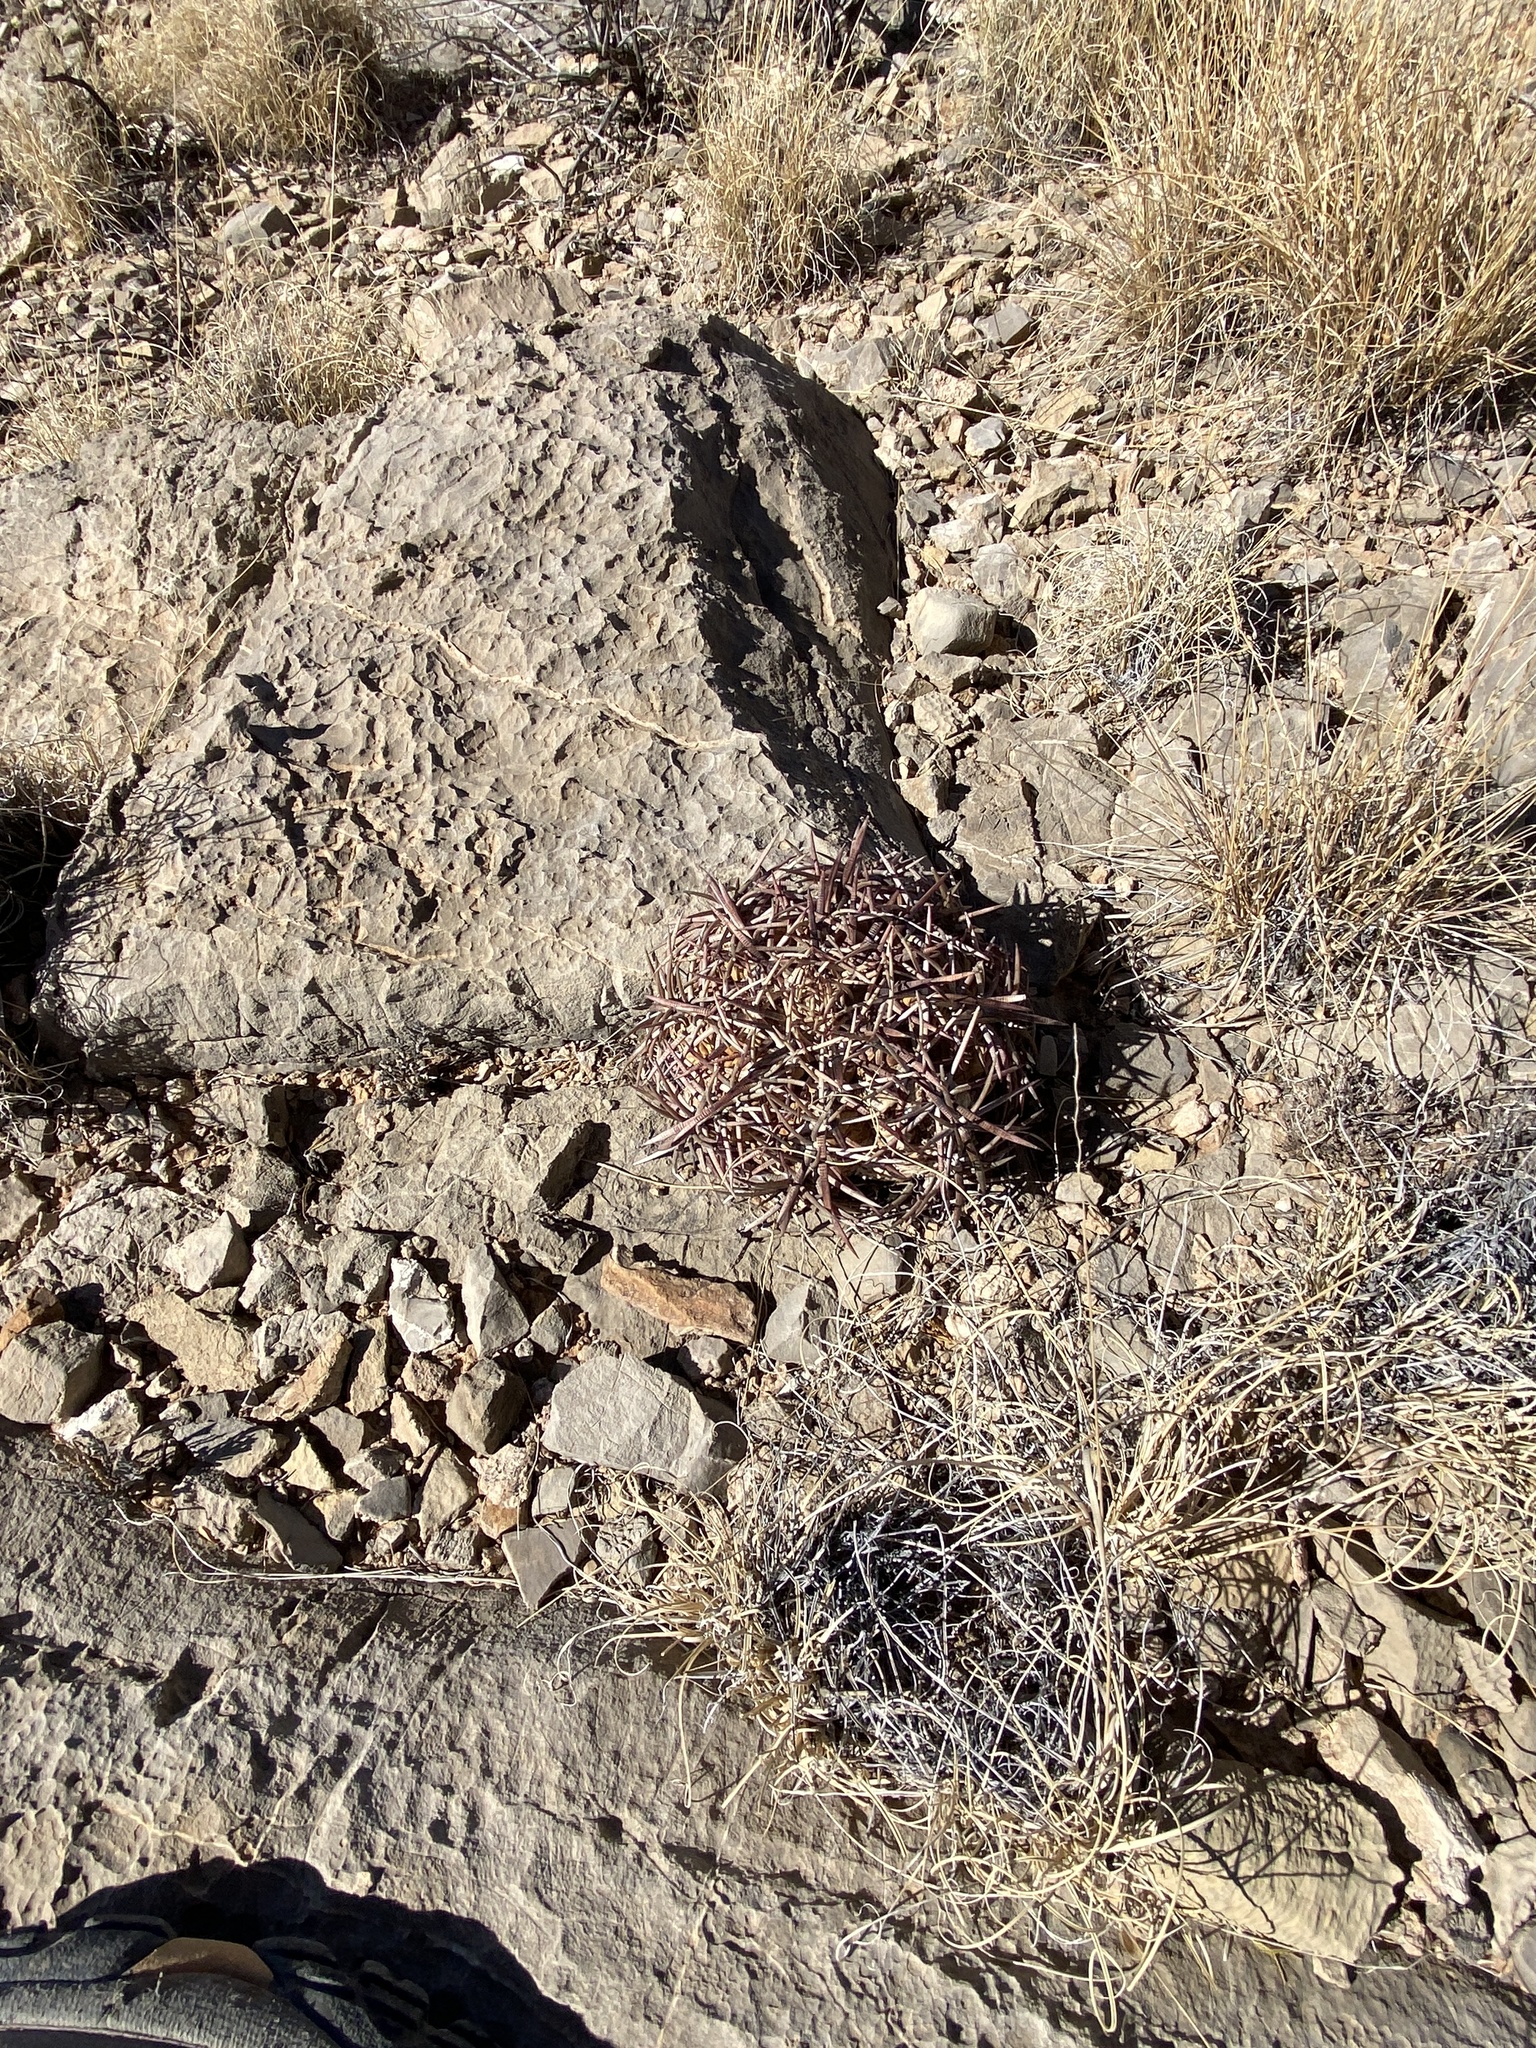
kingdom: Plantae
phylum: Tracheophyta
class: Magnoliopsida
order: Caryophyllales
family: Cactaceae
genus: Echinocactus
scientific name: Echinocactus horizonthalonius
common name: Devilshead
